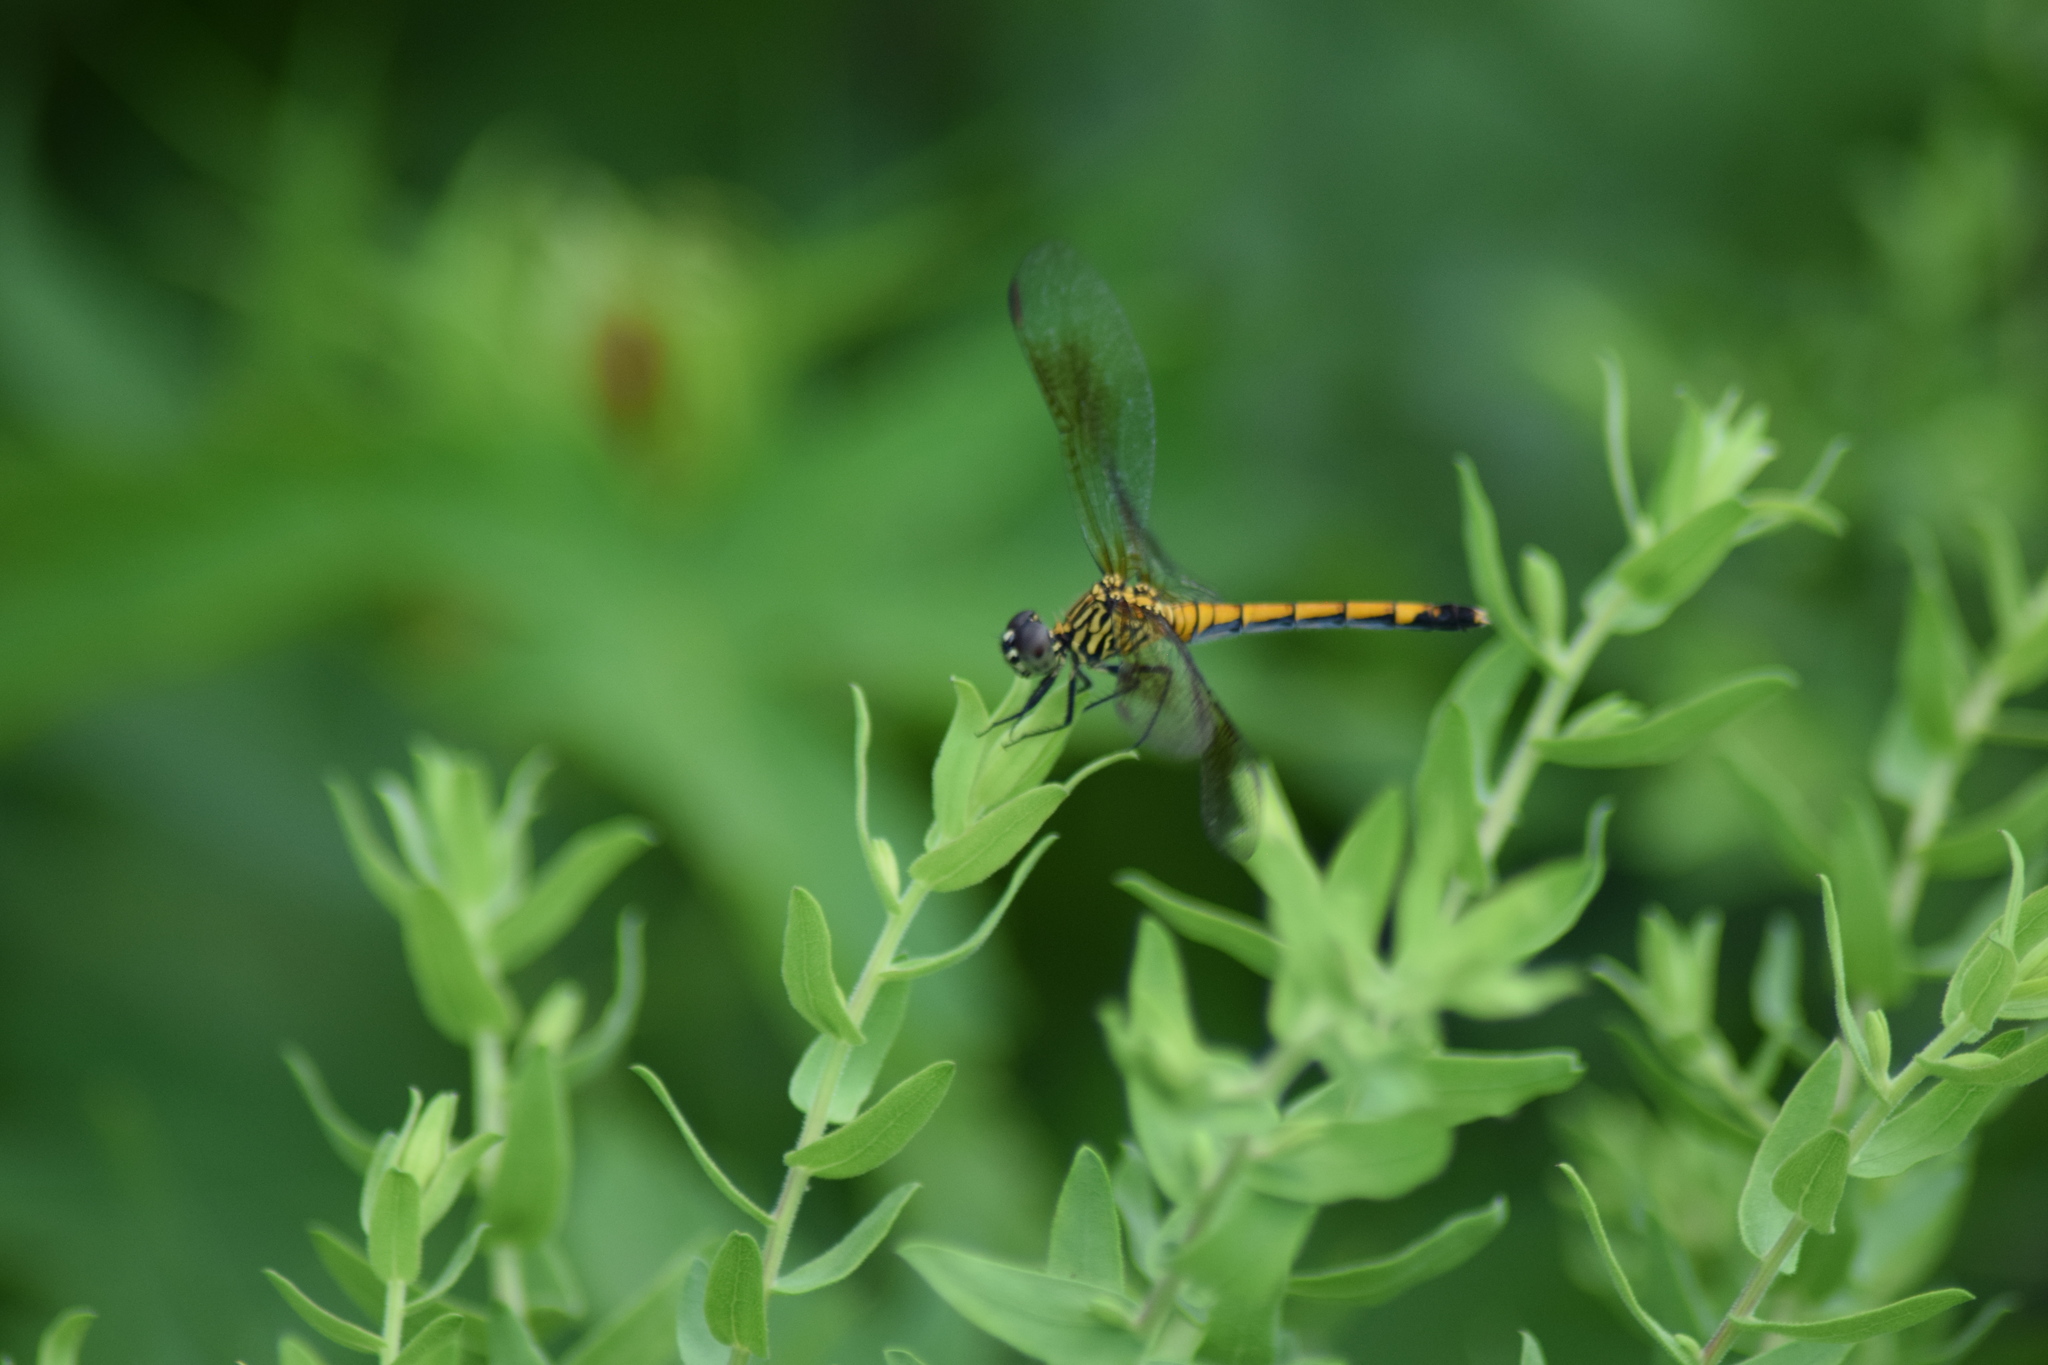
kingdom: Animalia
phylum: Arthropoda
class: Insecta
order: Odonata
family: Libellulidae
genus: Erythrodiplax
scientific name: Erythrodiplax berenice
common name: Seaside dragonlet
